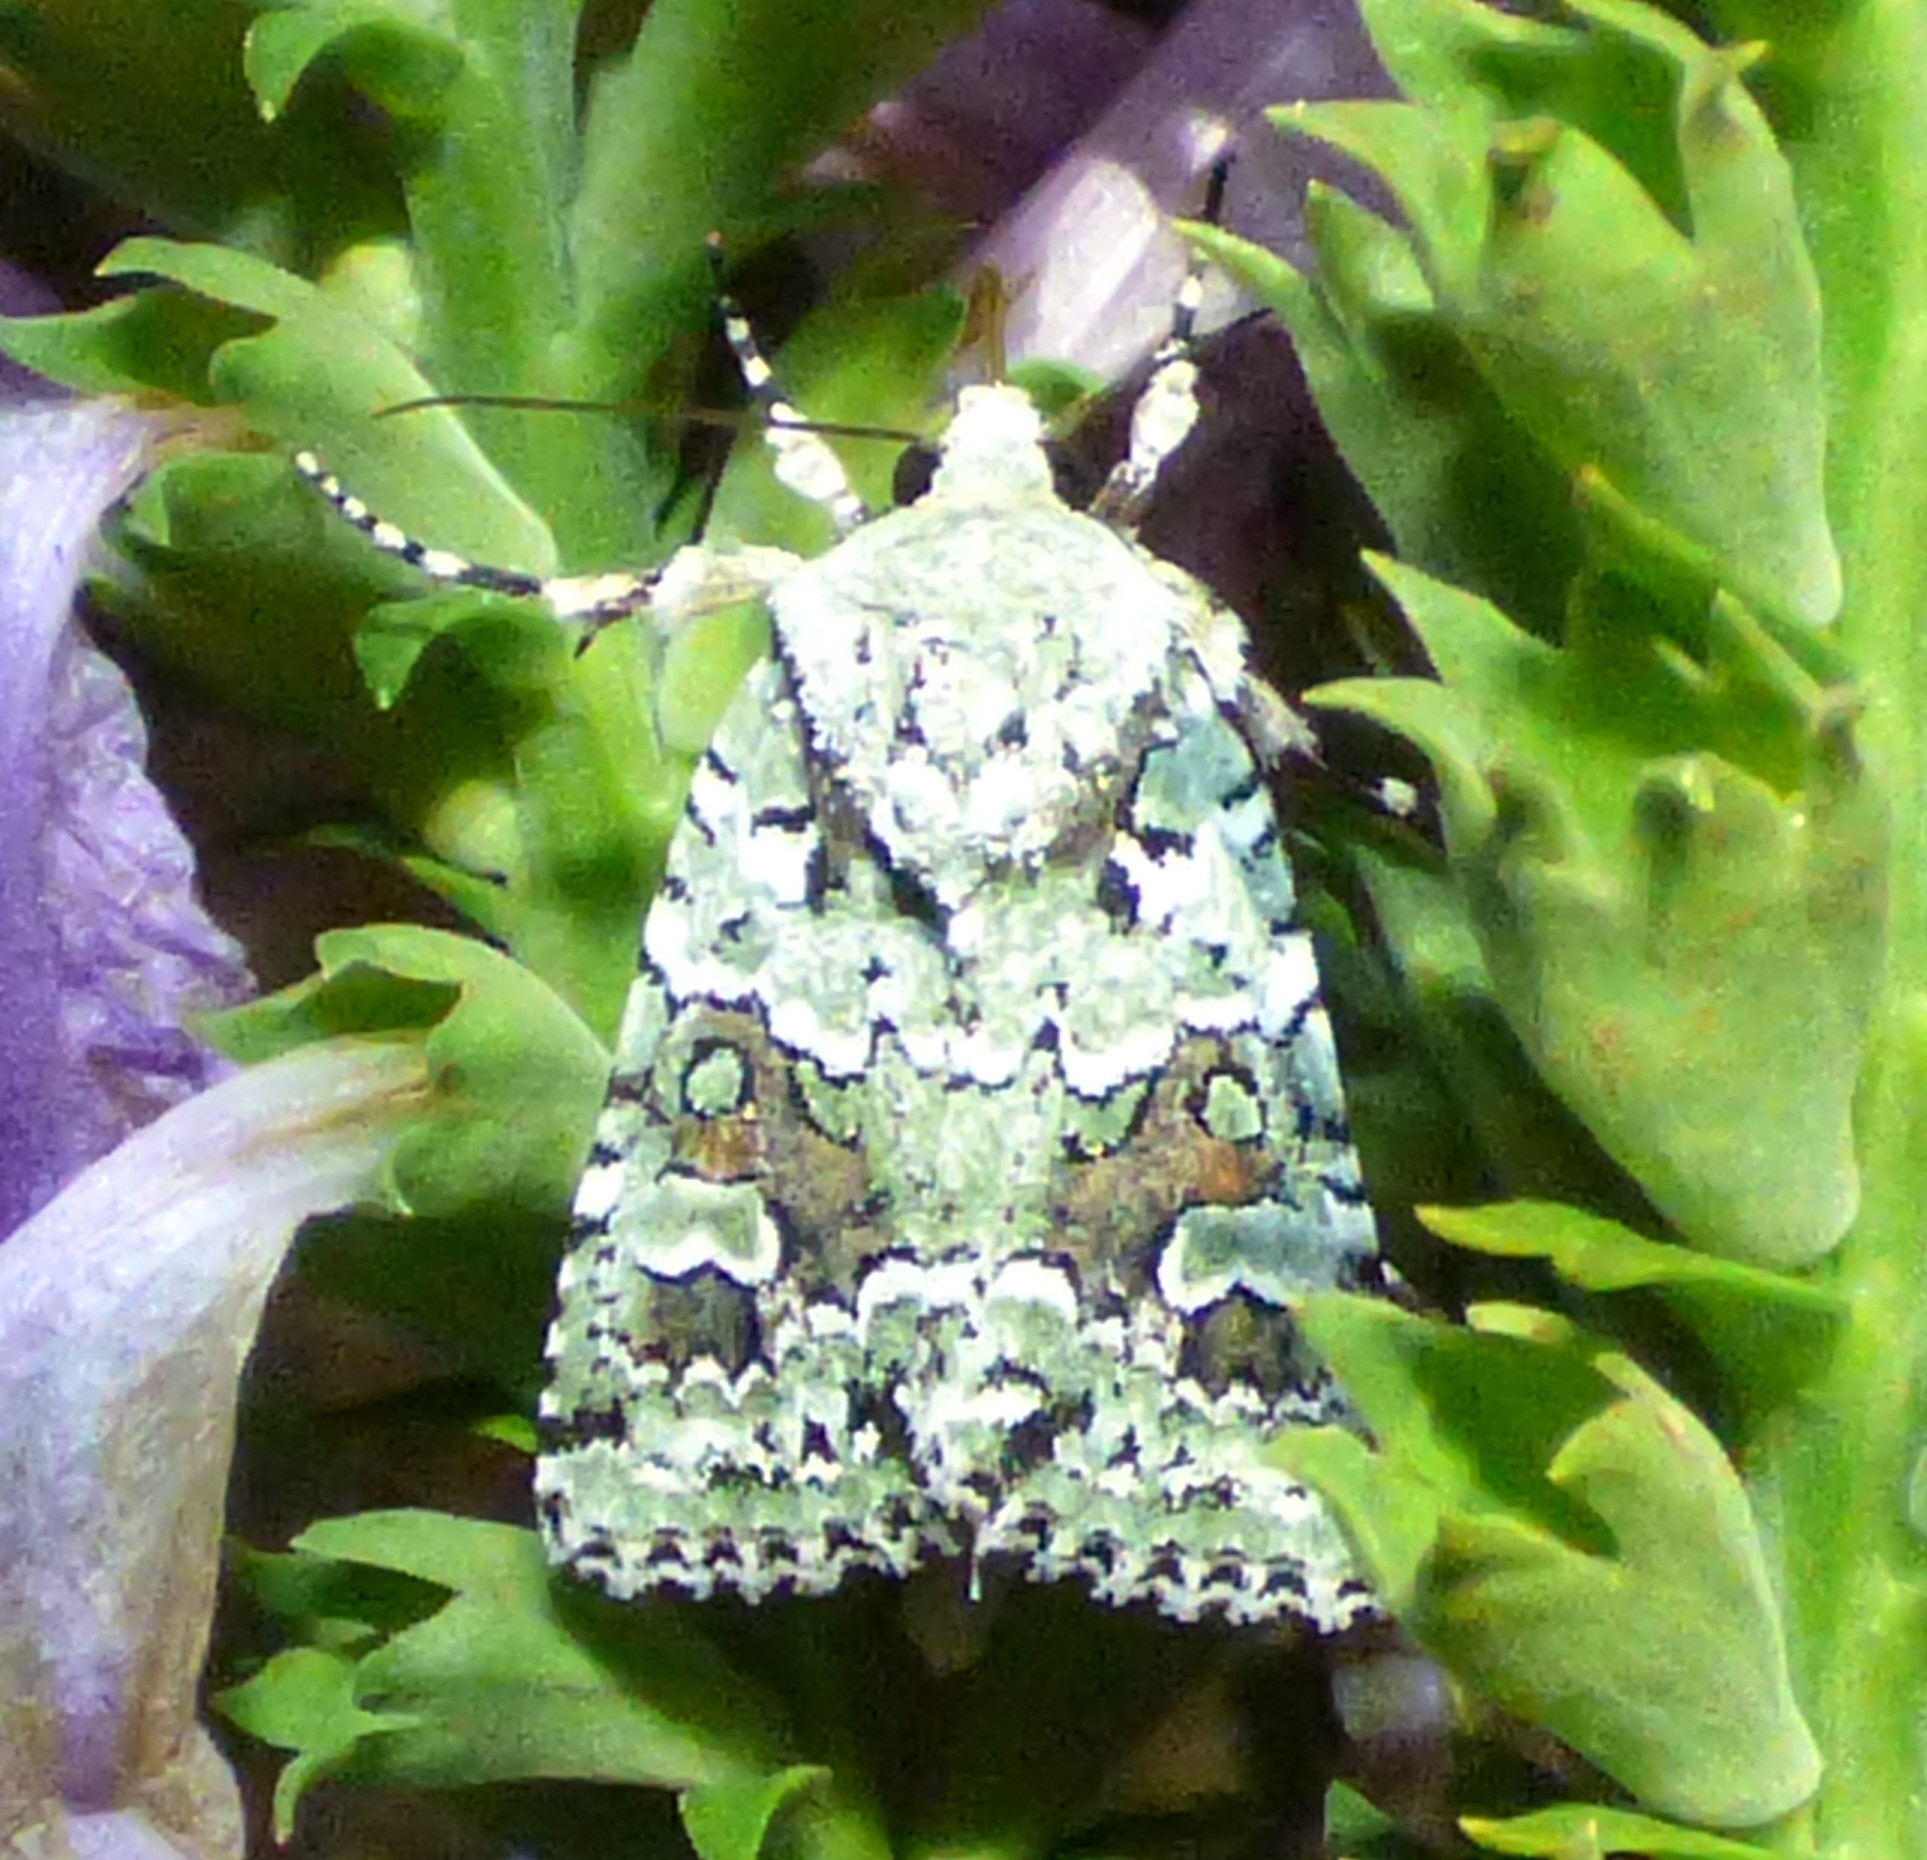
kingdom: Animalia
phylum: Arthropoda
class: Insecta
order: Lepidoptera
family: Noctuidae
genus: Lacinipolia
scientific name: Lacinipolia laudabilis
